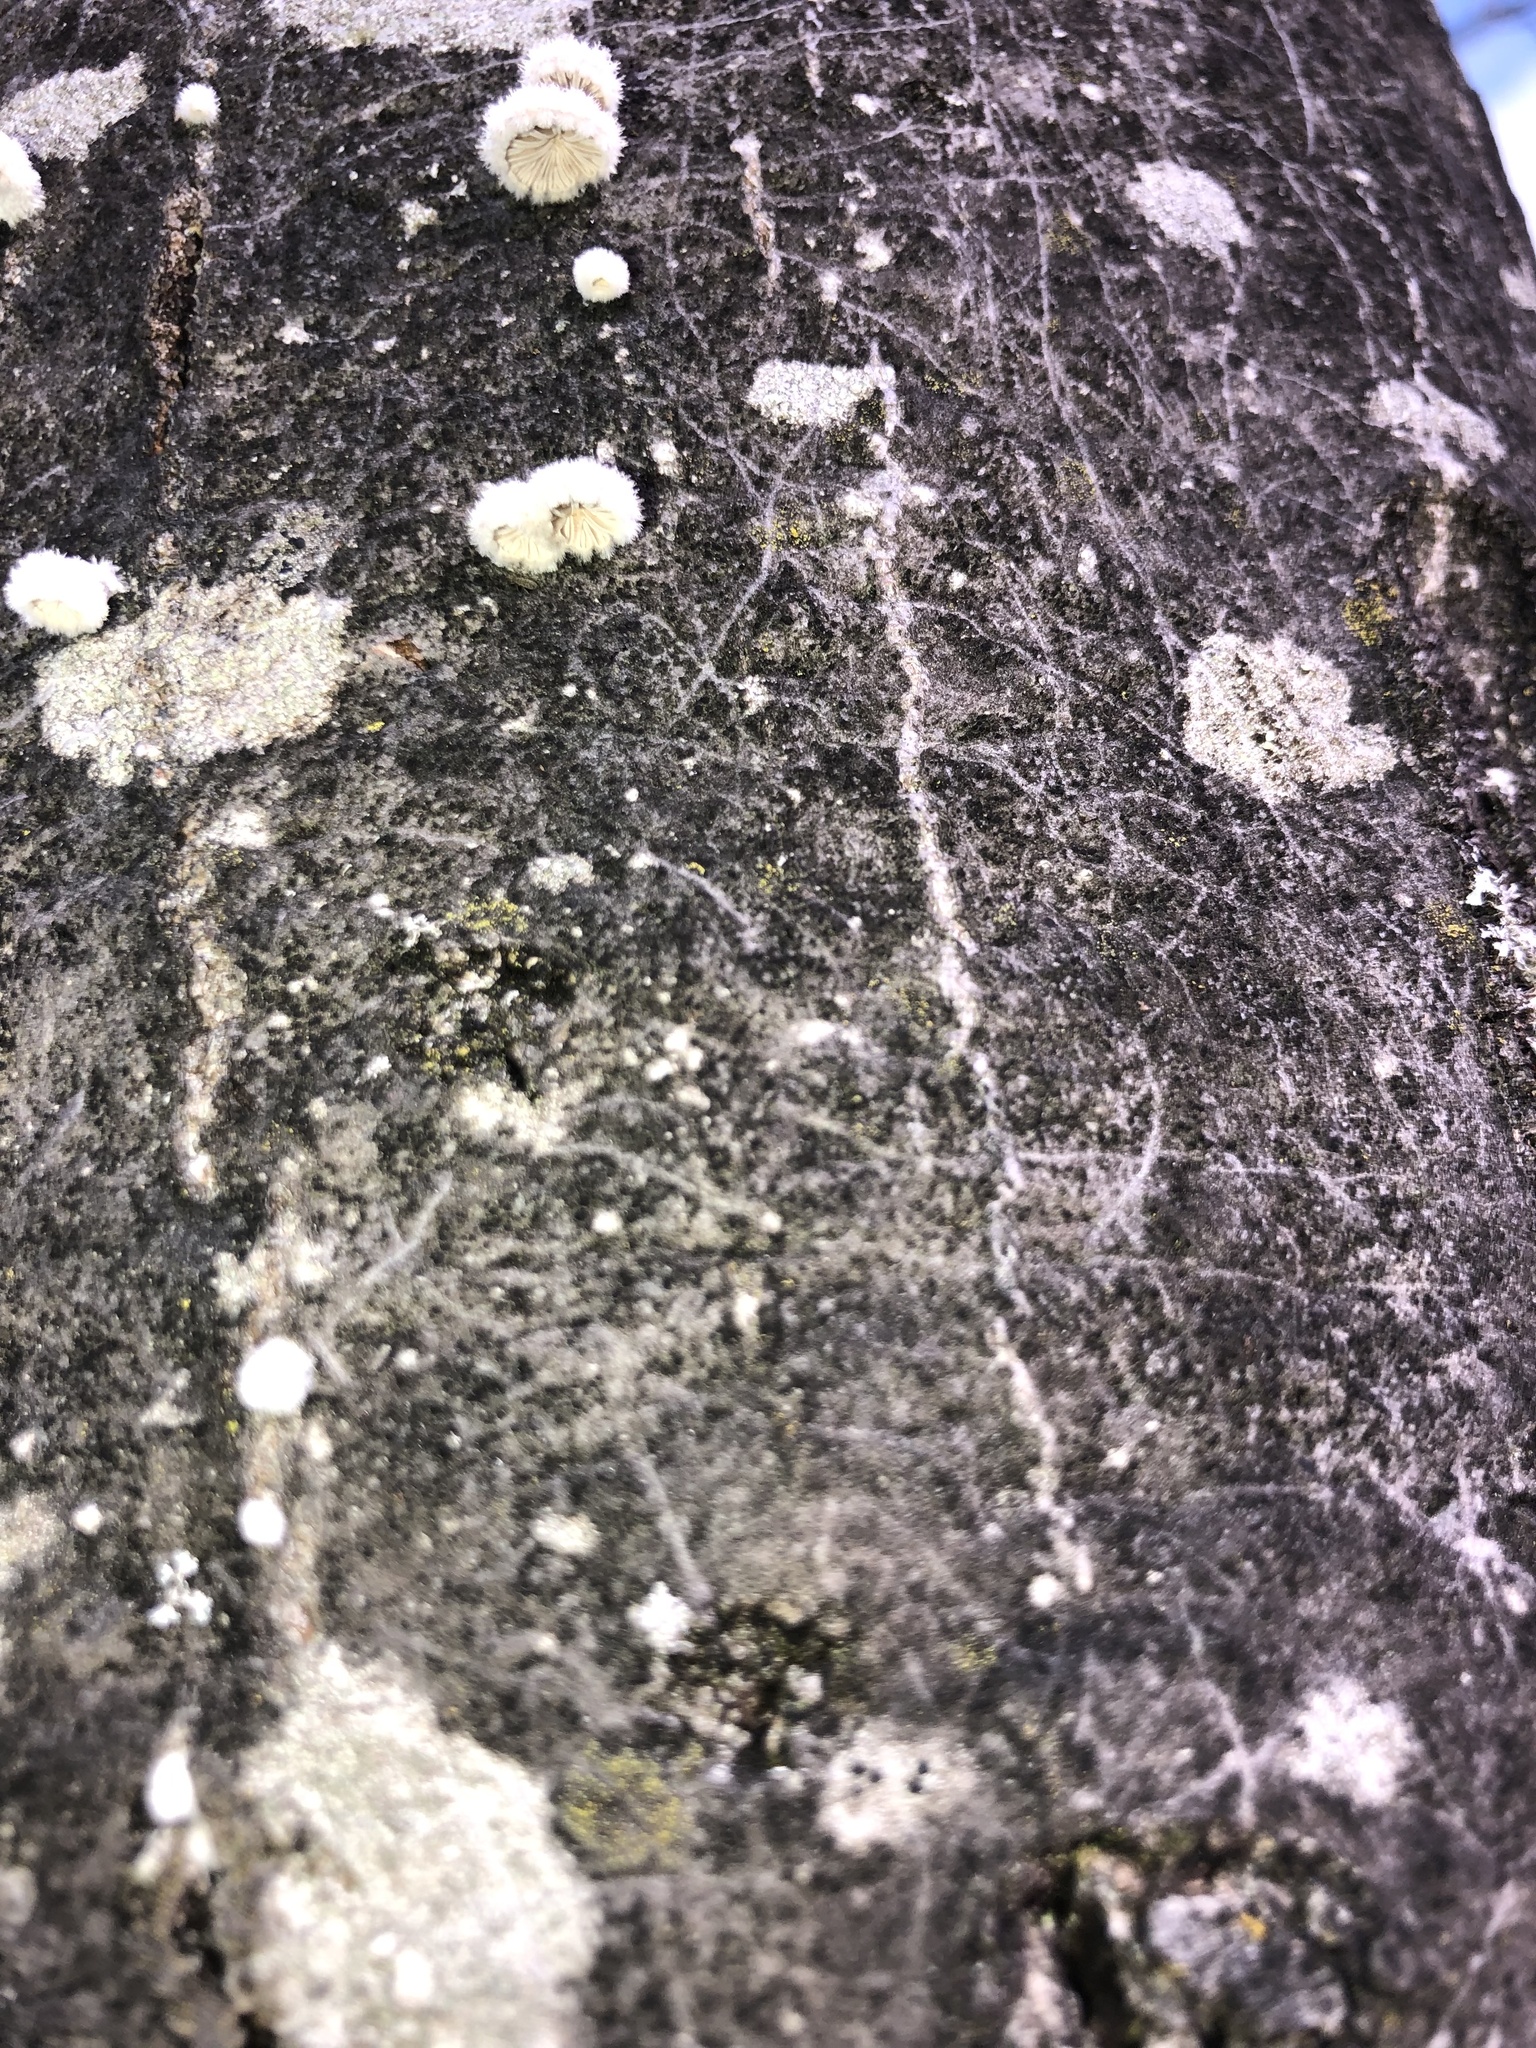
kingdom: Fungi
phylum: Basidiomycota
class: Agaricomycetes
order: Agaricales
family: Schizophyllaceae
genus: Schizophyllum
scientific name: Schizophyllum commune
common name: Common porecrust
